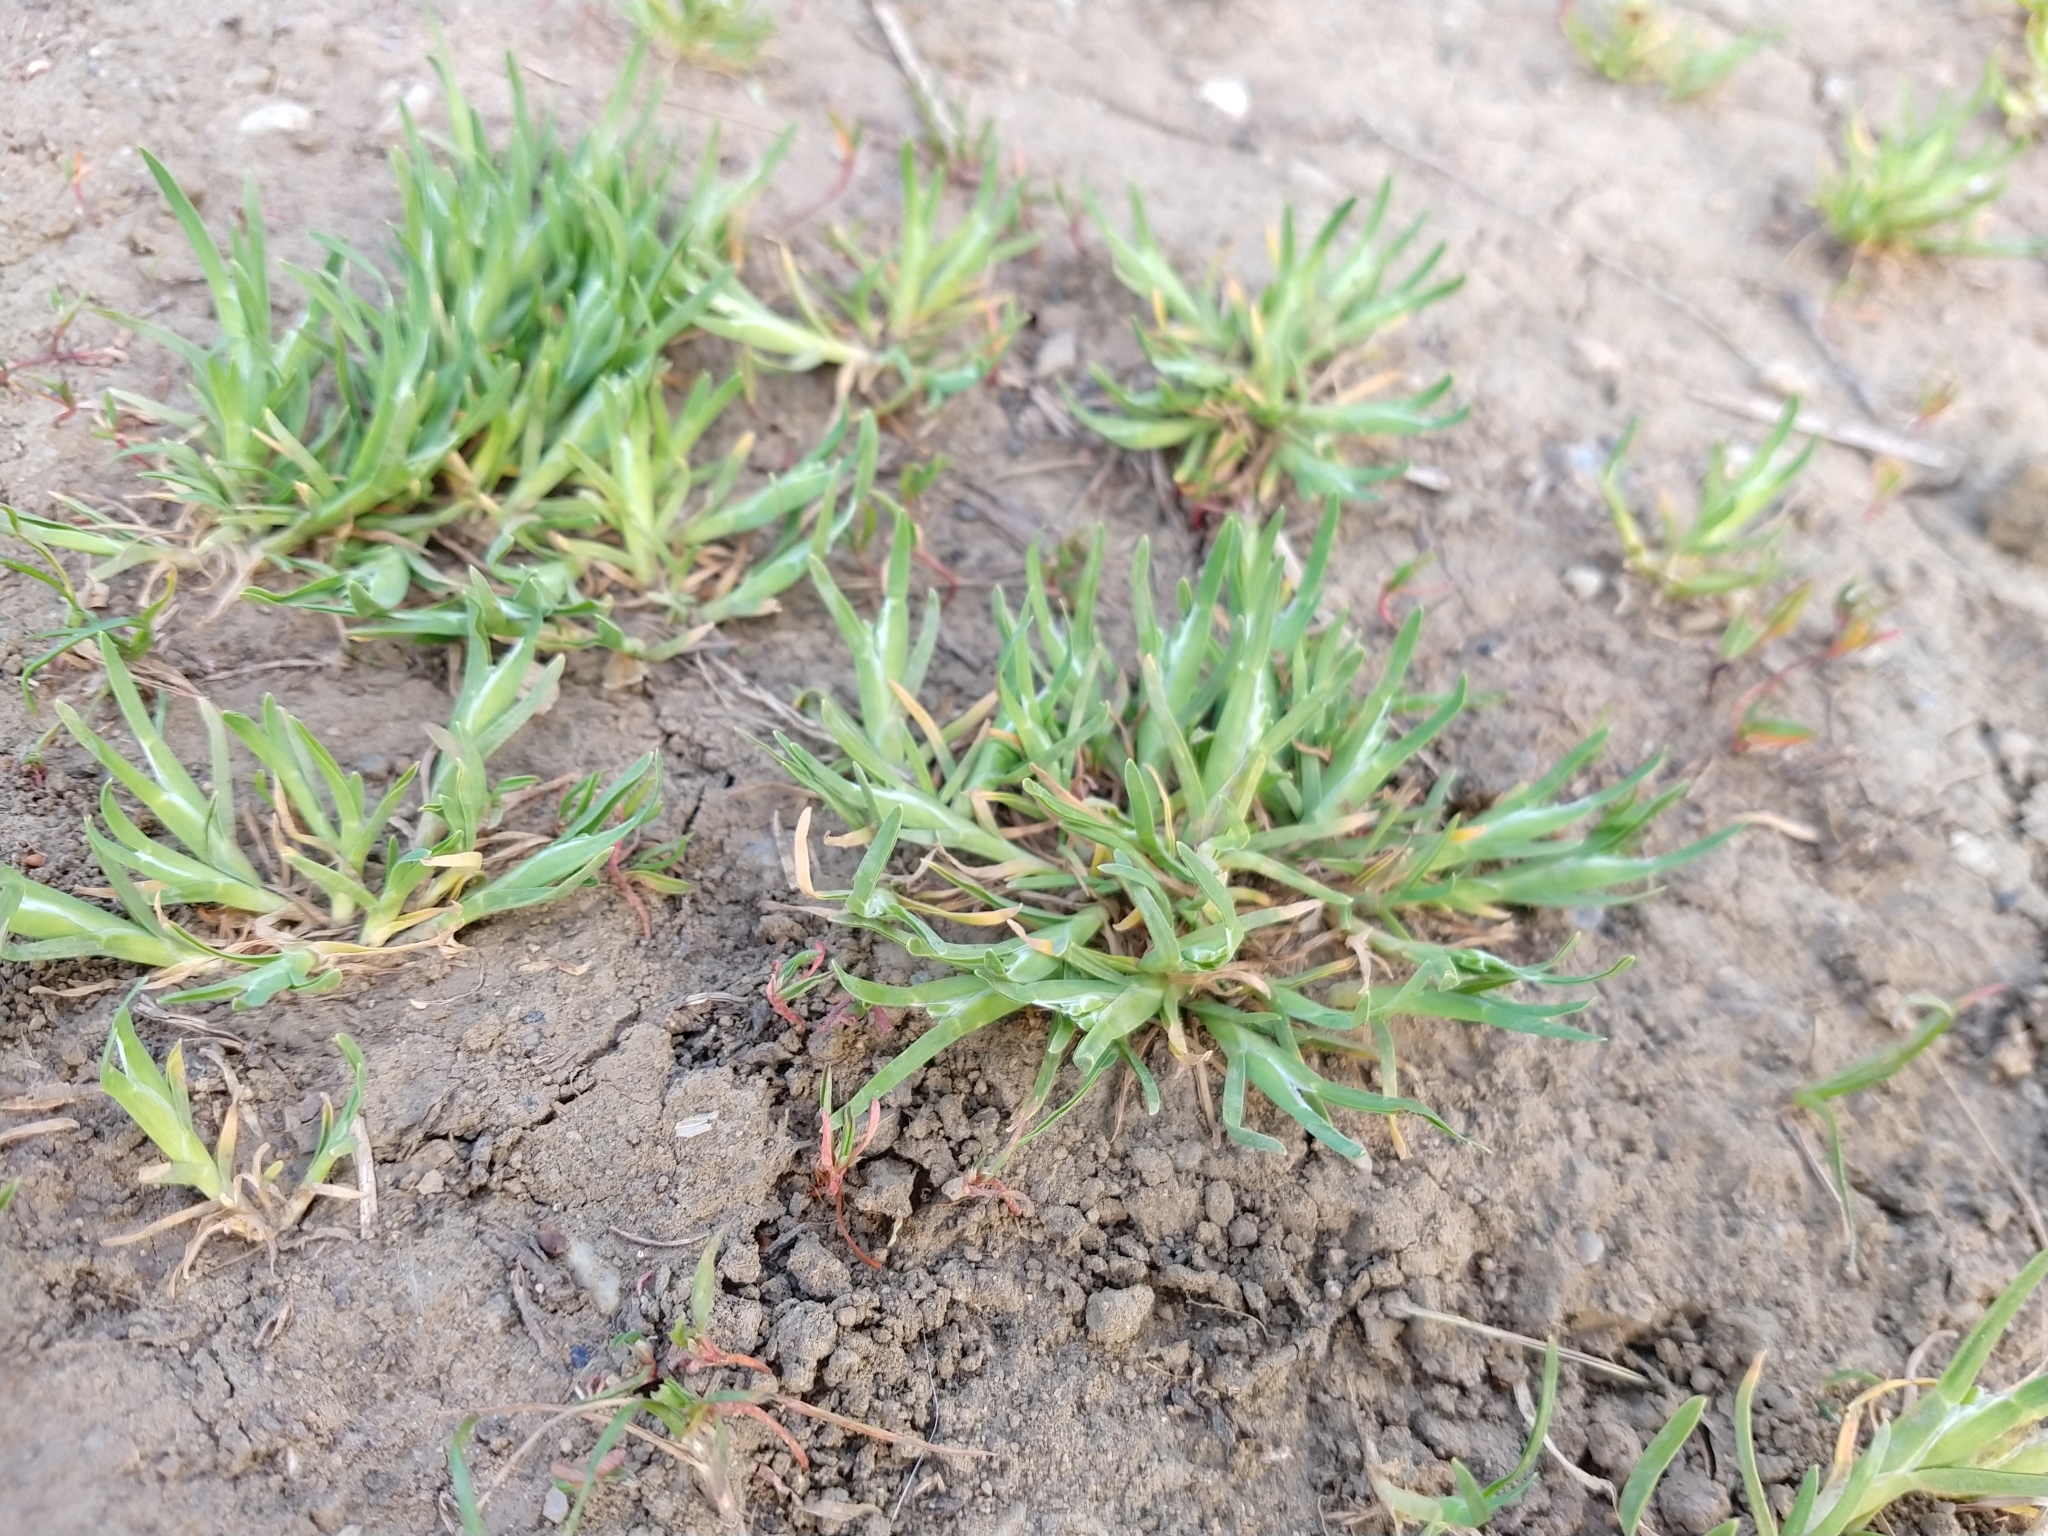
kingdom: Plantae
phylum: Tracheophyta
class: Liliopsida
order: Poales
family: Poaceae
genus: Sclerochloa
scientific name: Sclerochloa dura
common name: Common hardgrass
